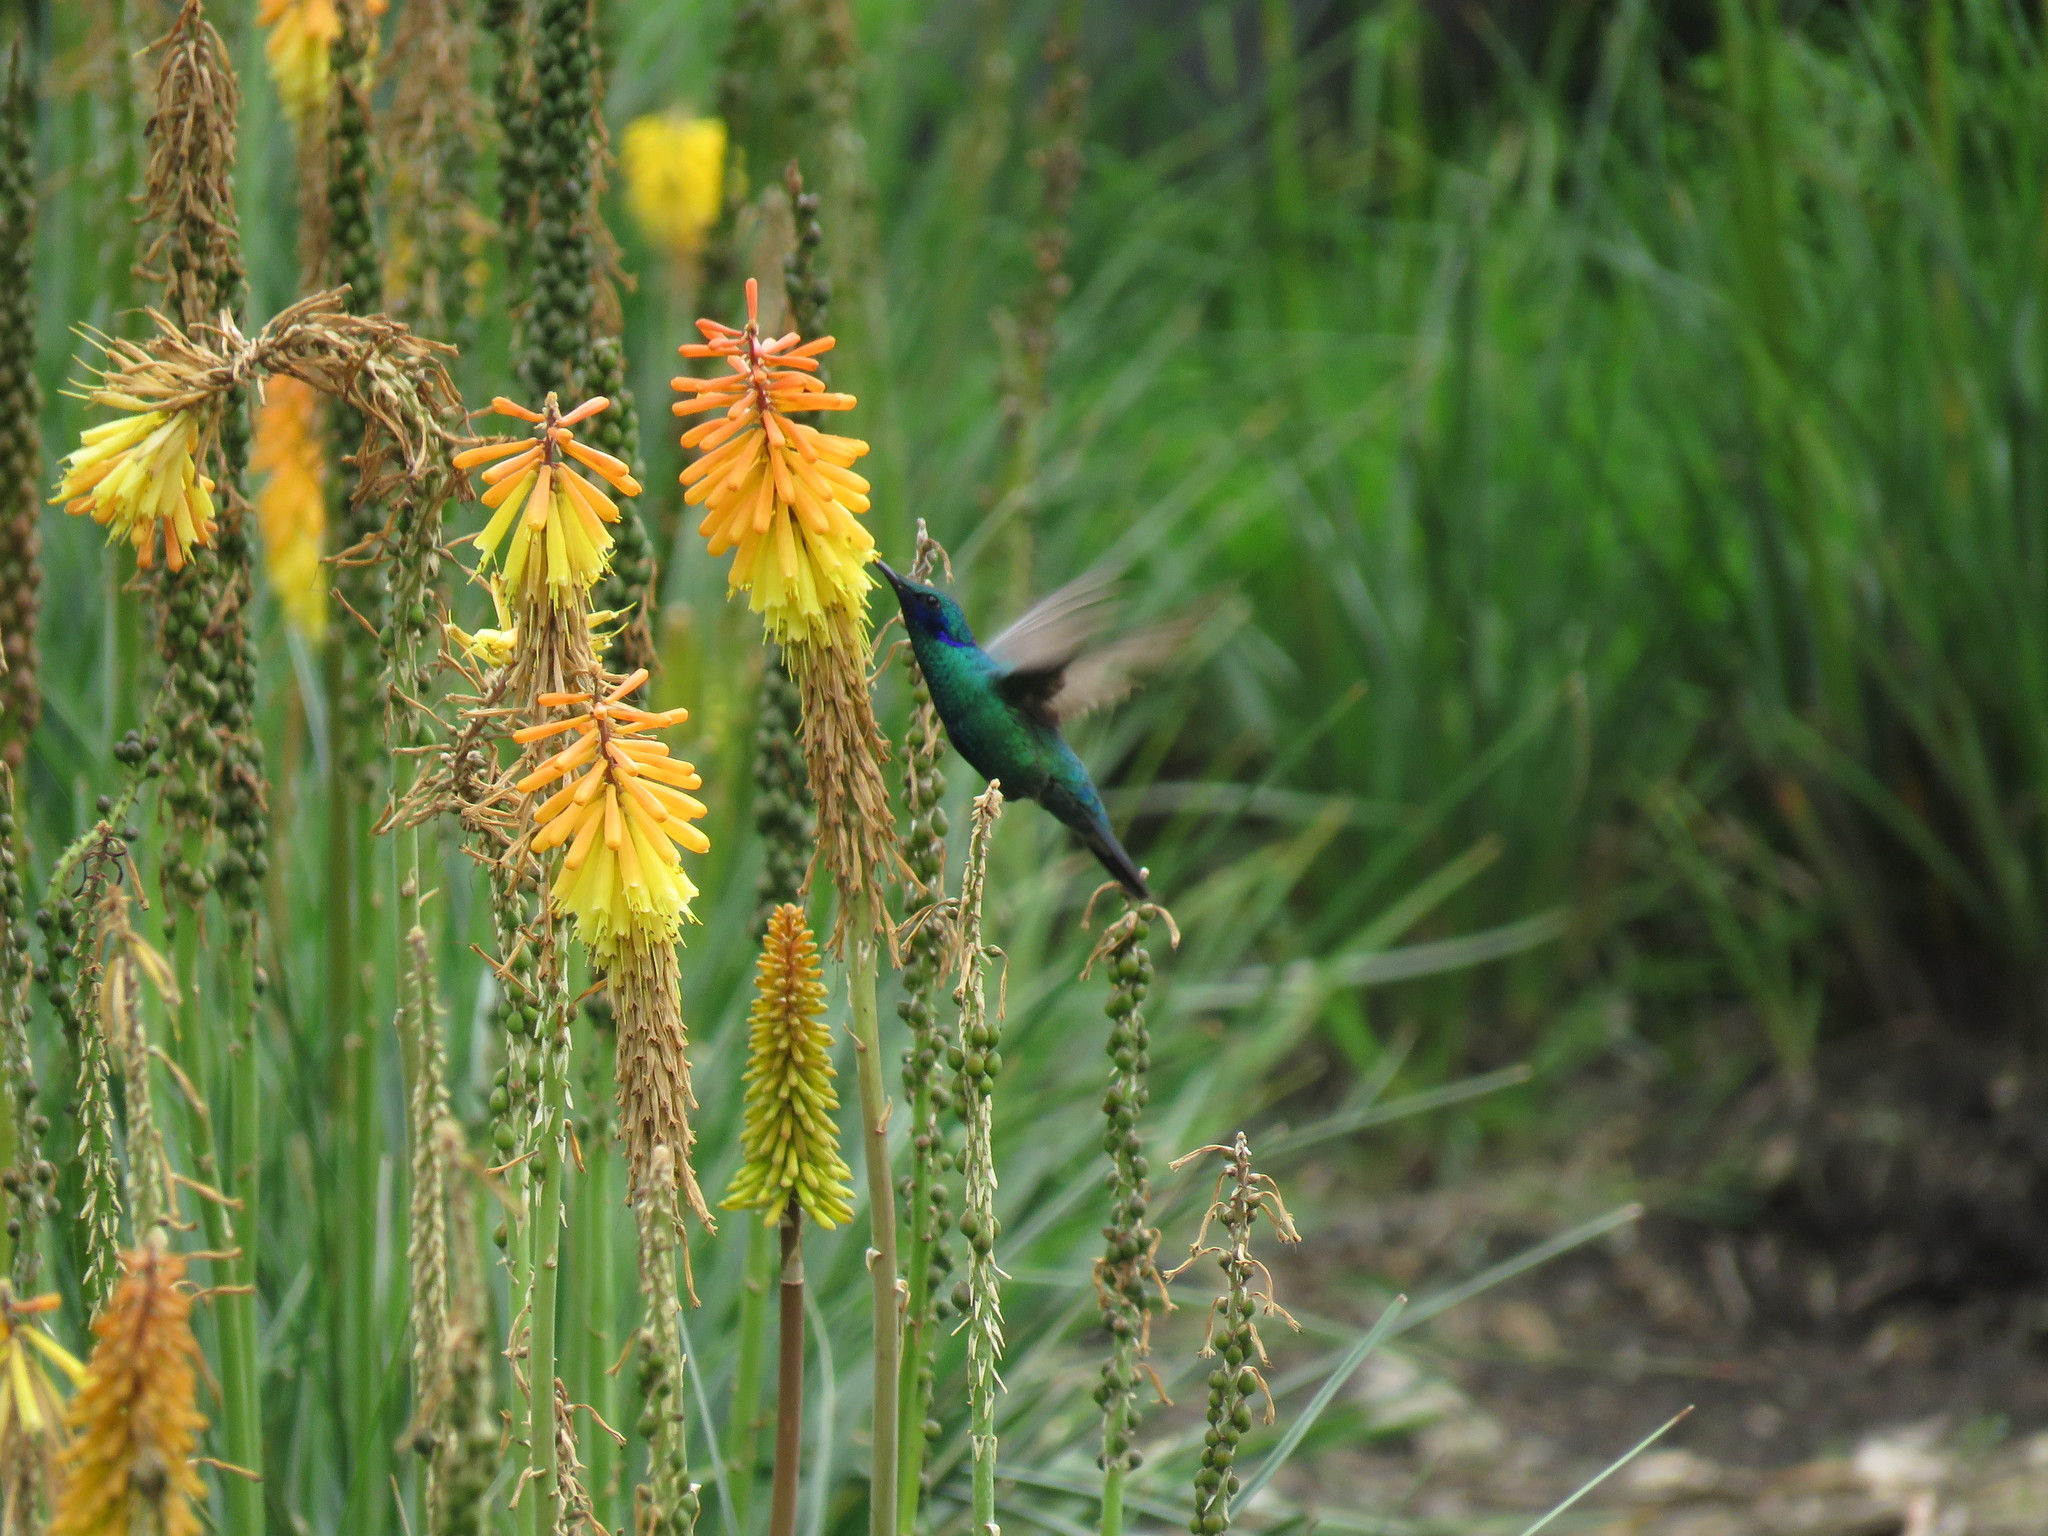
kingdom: Animalia
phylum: Chordata
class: Aves
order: Apodiformes
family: Trochilidae
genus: Colibri
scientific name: Colibri coruscans
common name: Sparkling violetear
